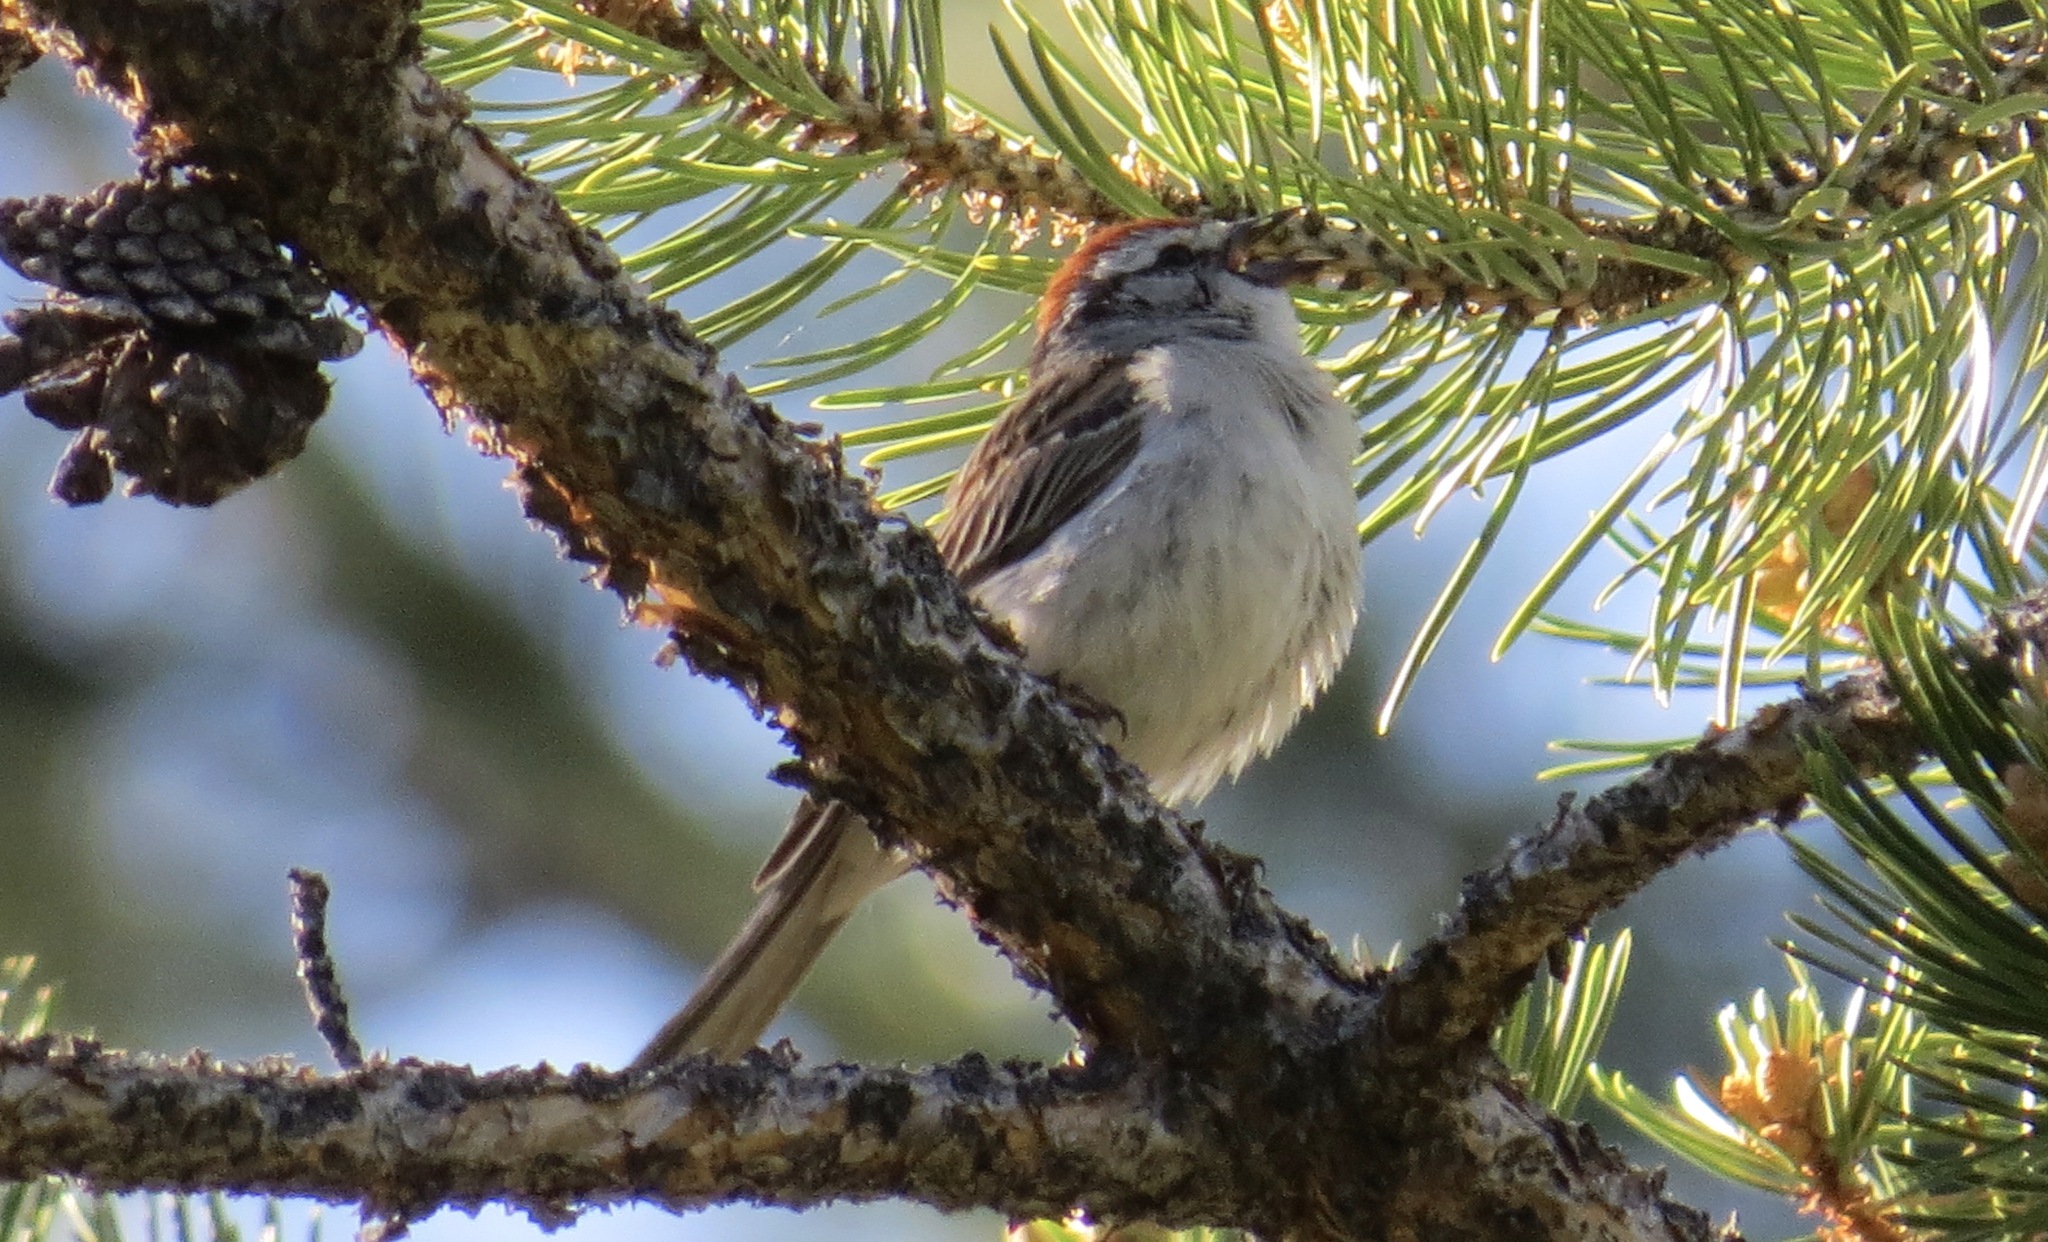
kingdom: Animalia
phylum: Chordata
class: Aves
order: Passeriformes
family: Passerellidae
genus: Spizella
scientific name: Spizella passerina
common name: Chipping sparrow
